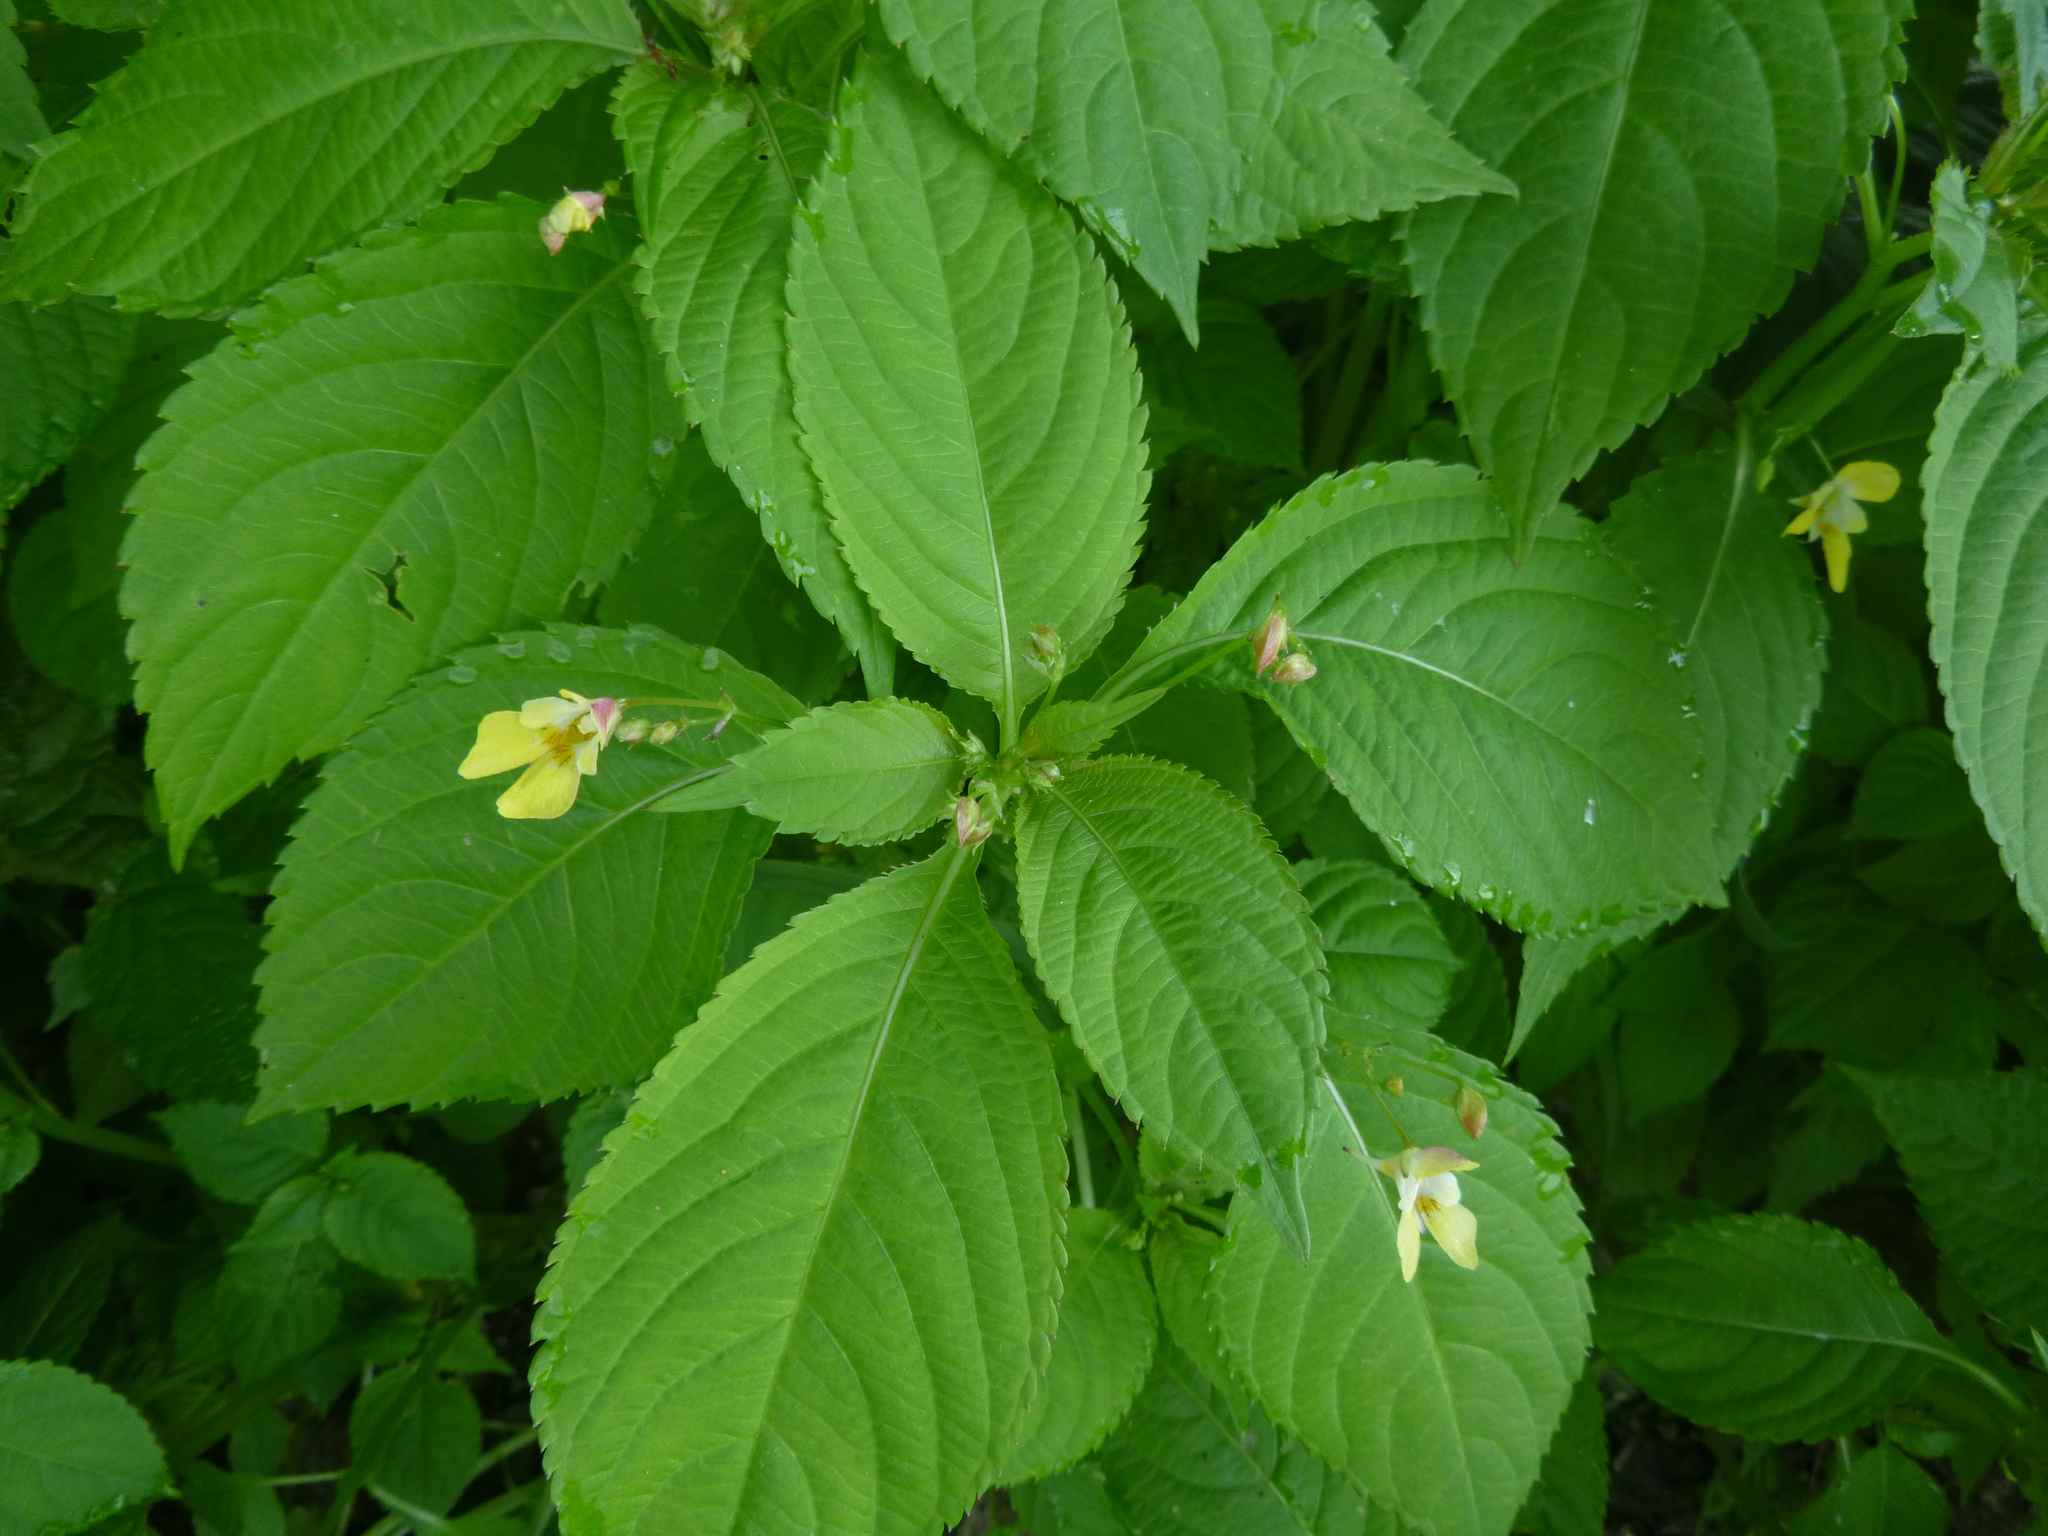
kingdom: Plantae
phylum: Tracheophyta
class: Magnoliopsida
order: Ericales
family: Balsaminaceae
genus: Impatiens
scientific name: Impatiens parviflora
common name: Small balsam
